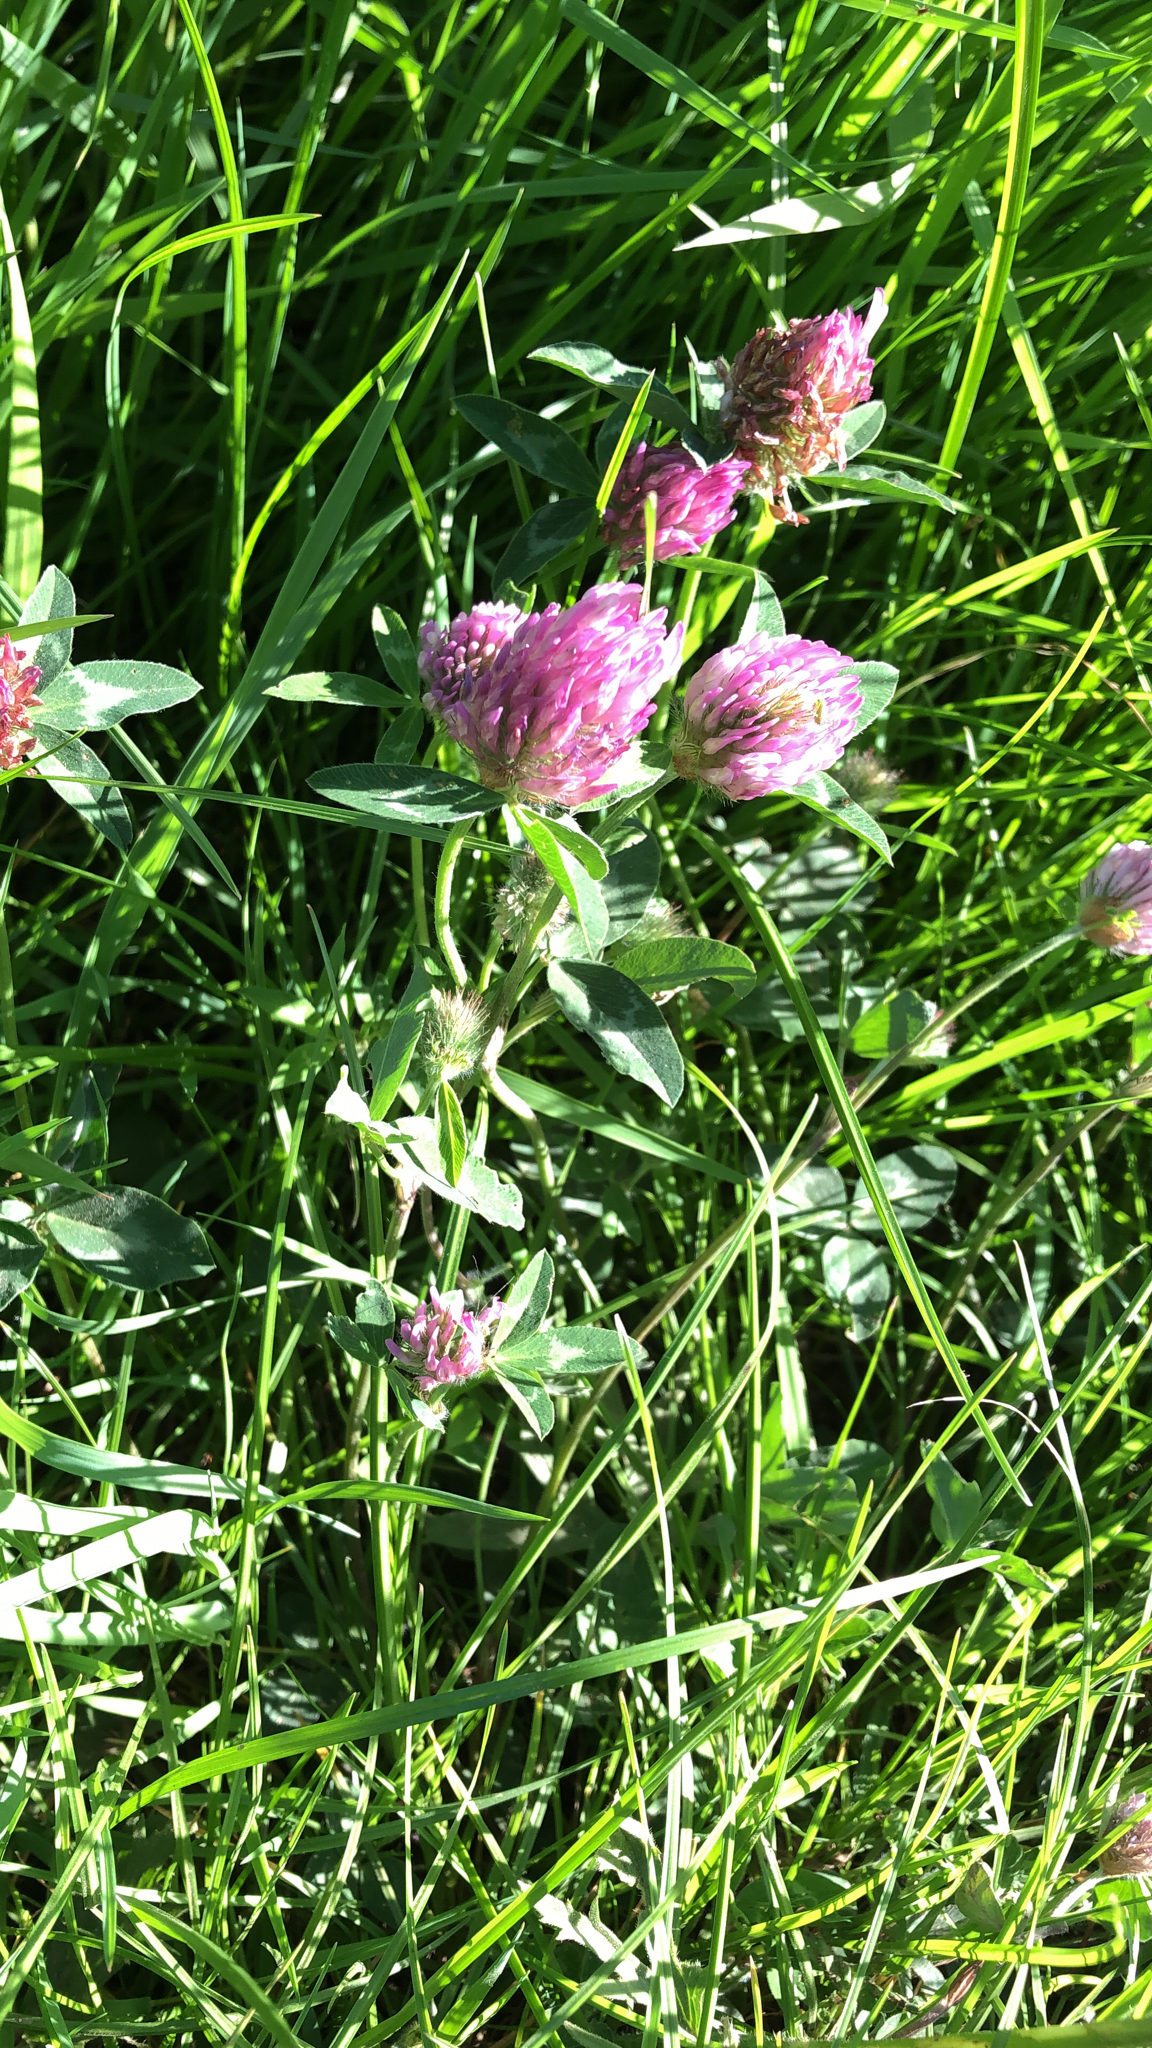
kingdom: Plantae
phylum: Tracheophyta
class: Magnoliopsida
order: Fabales
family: Fabaceae
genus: Trifolium
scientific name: Trifolium pratense
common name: Red clover
